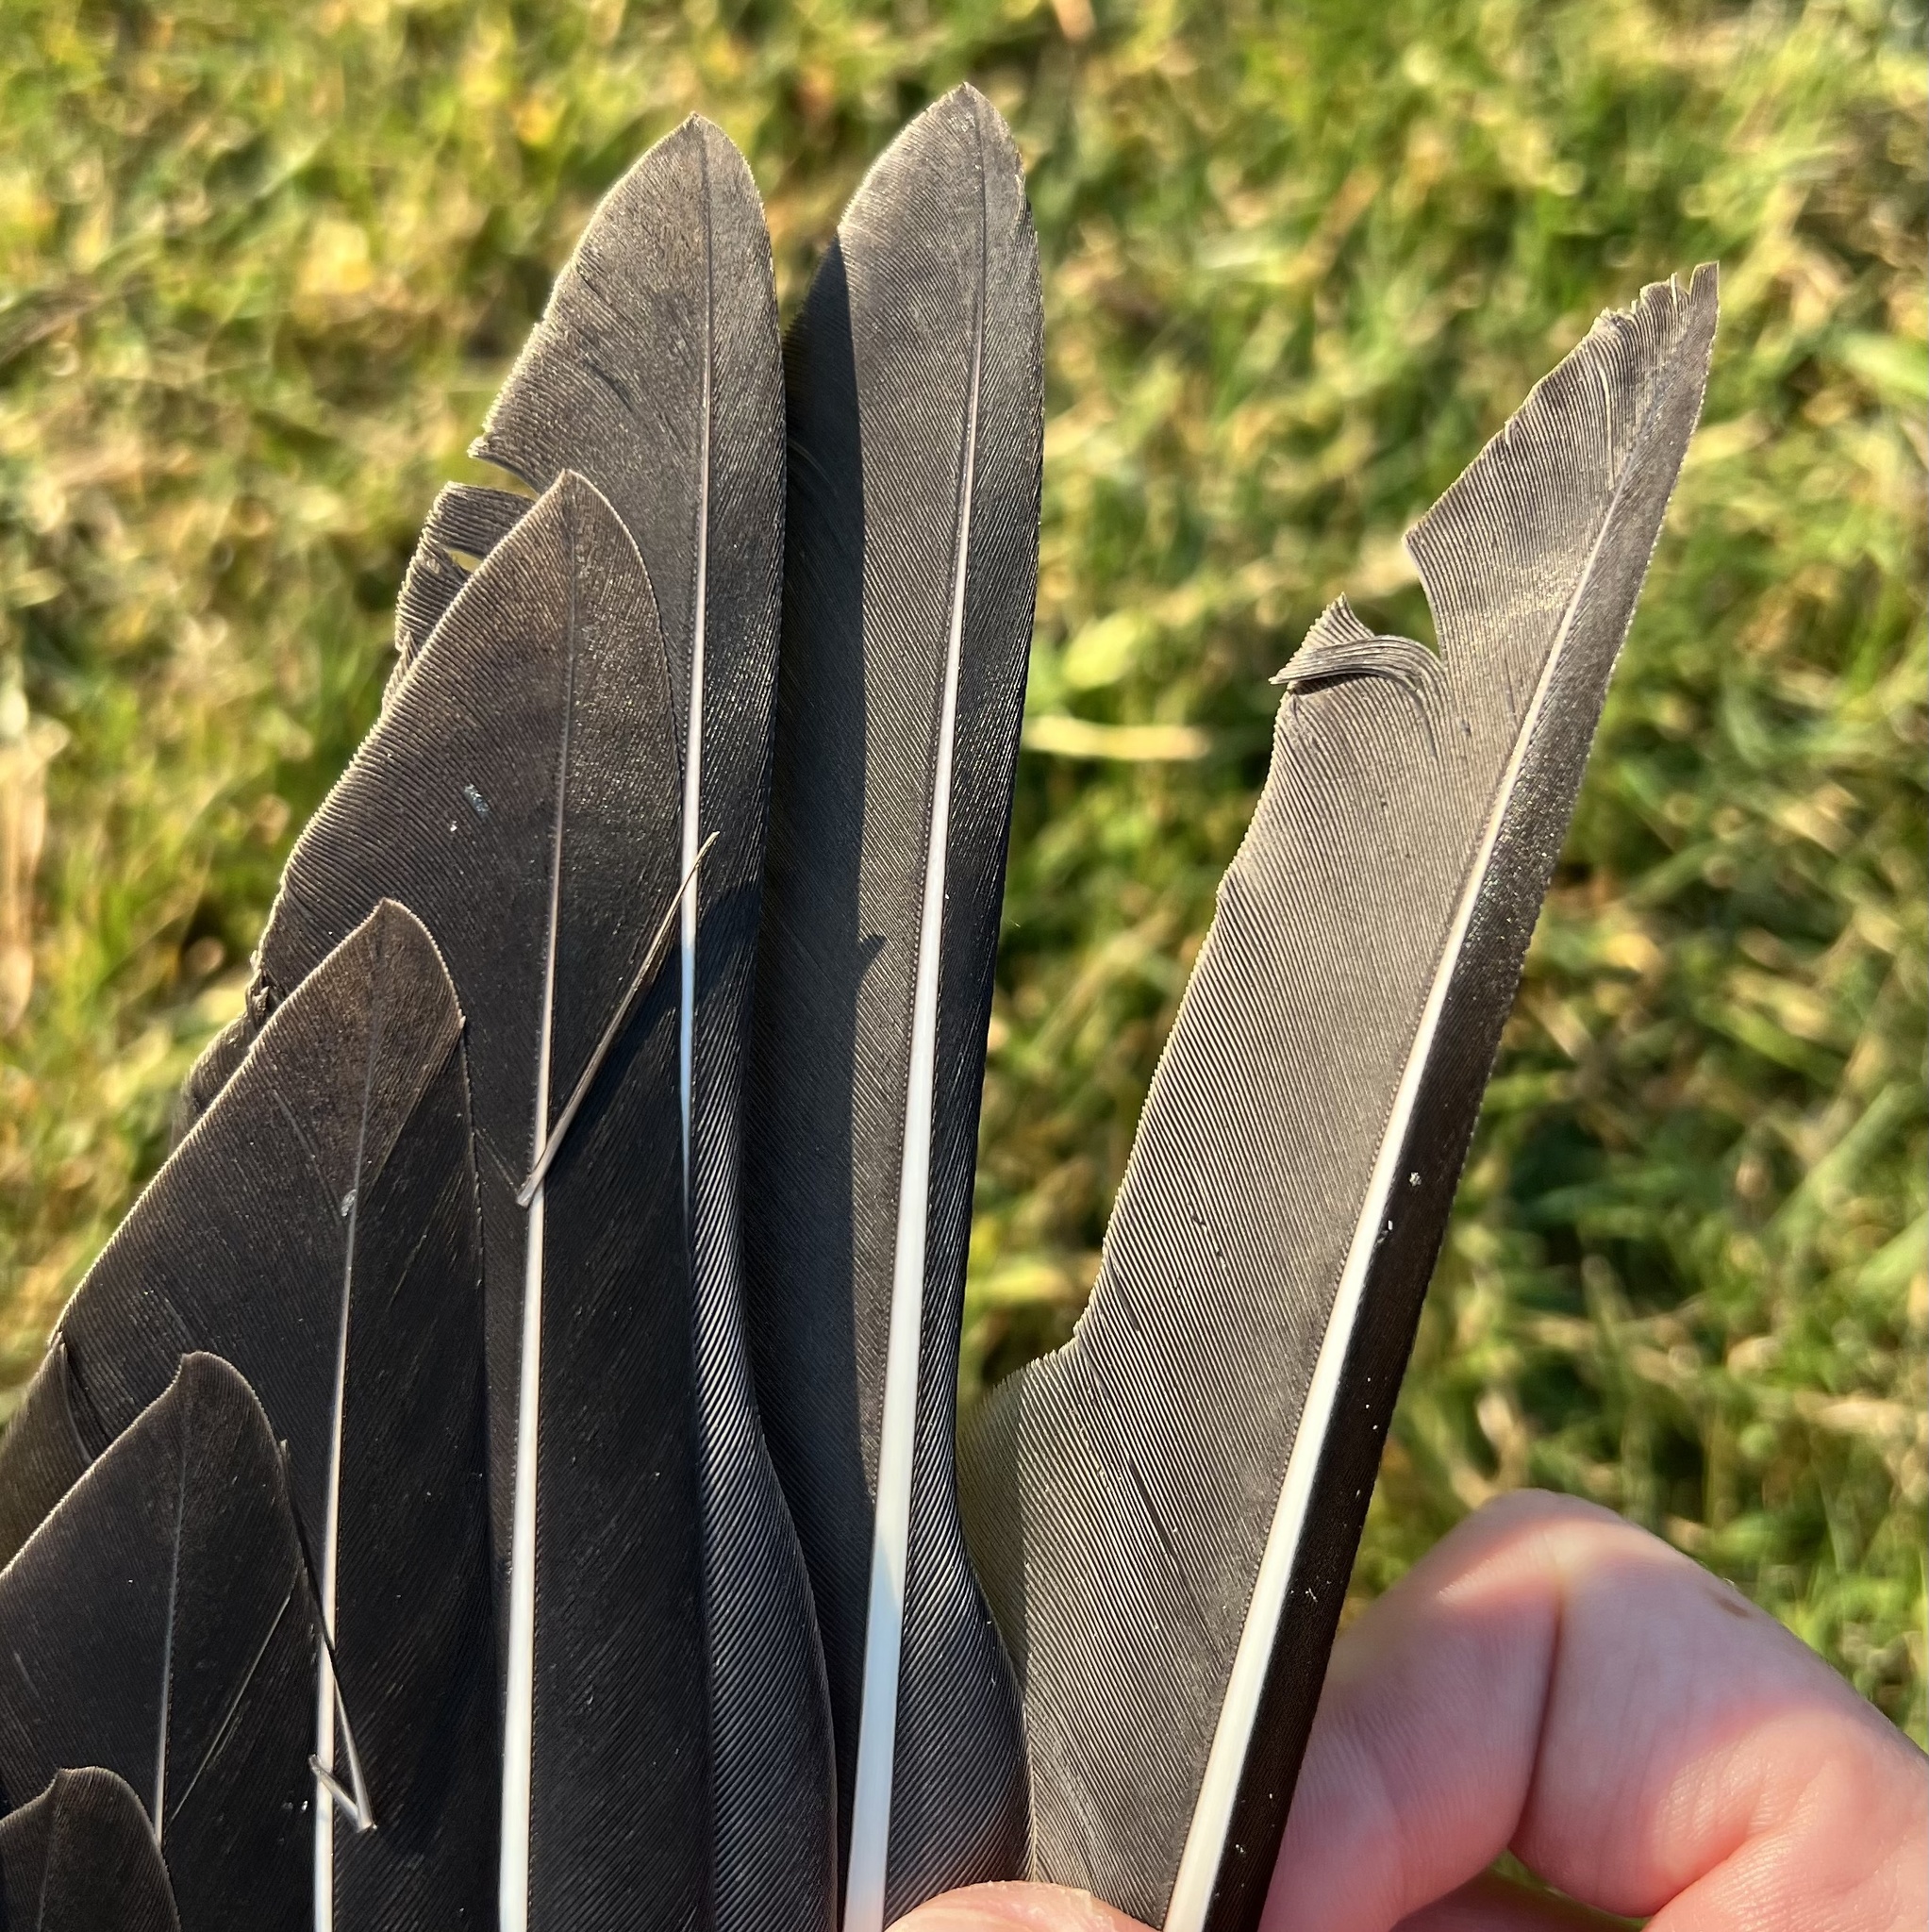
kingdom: Animalia
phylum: Chordata
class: Aves
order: Anseriformes
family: Anatidae
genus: Anser
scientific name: Anser albifrons
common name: Greater white-fronted goose
